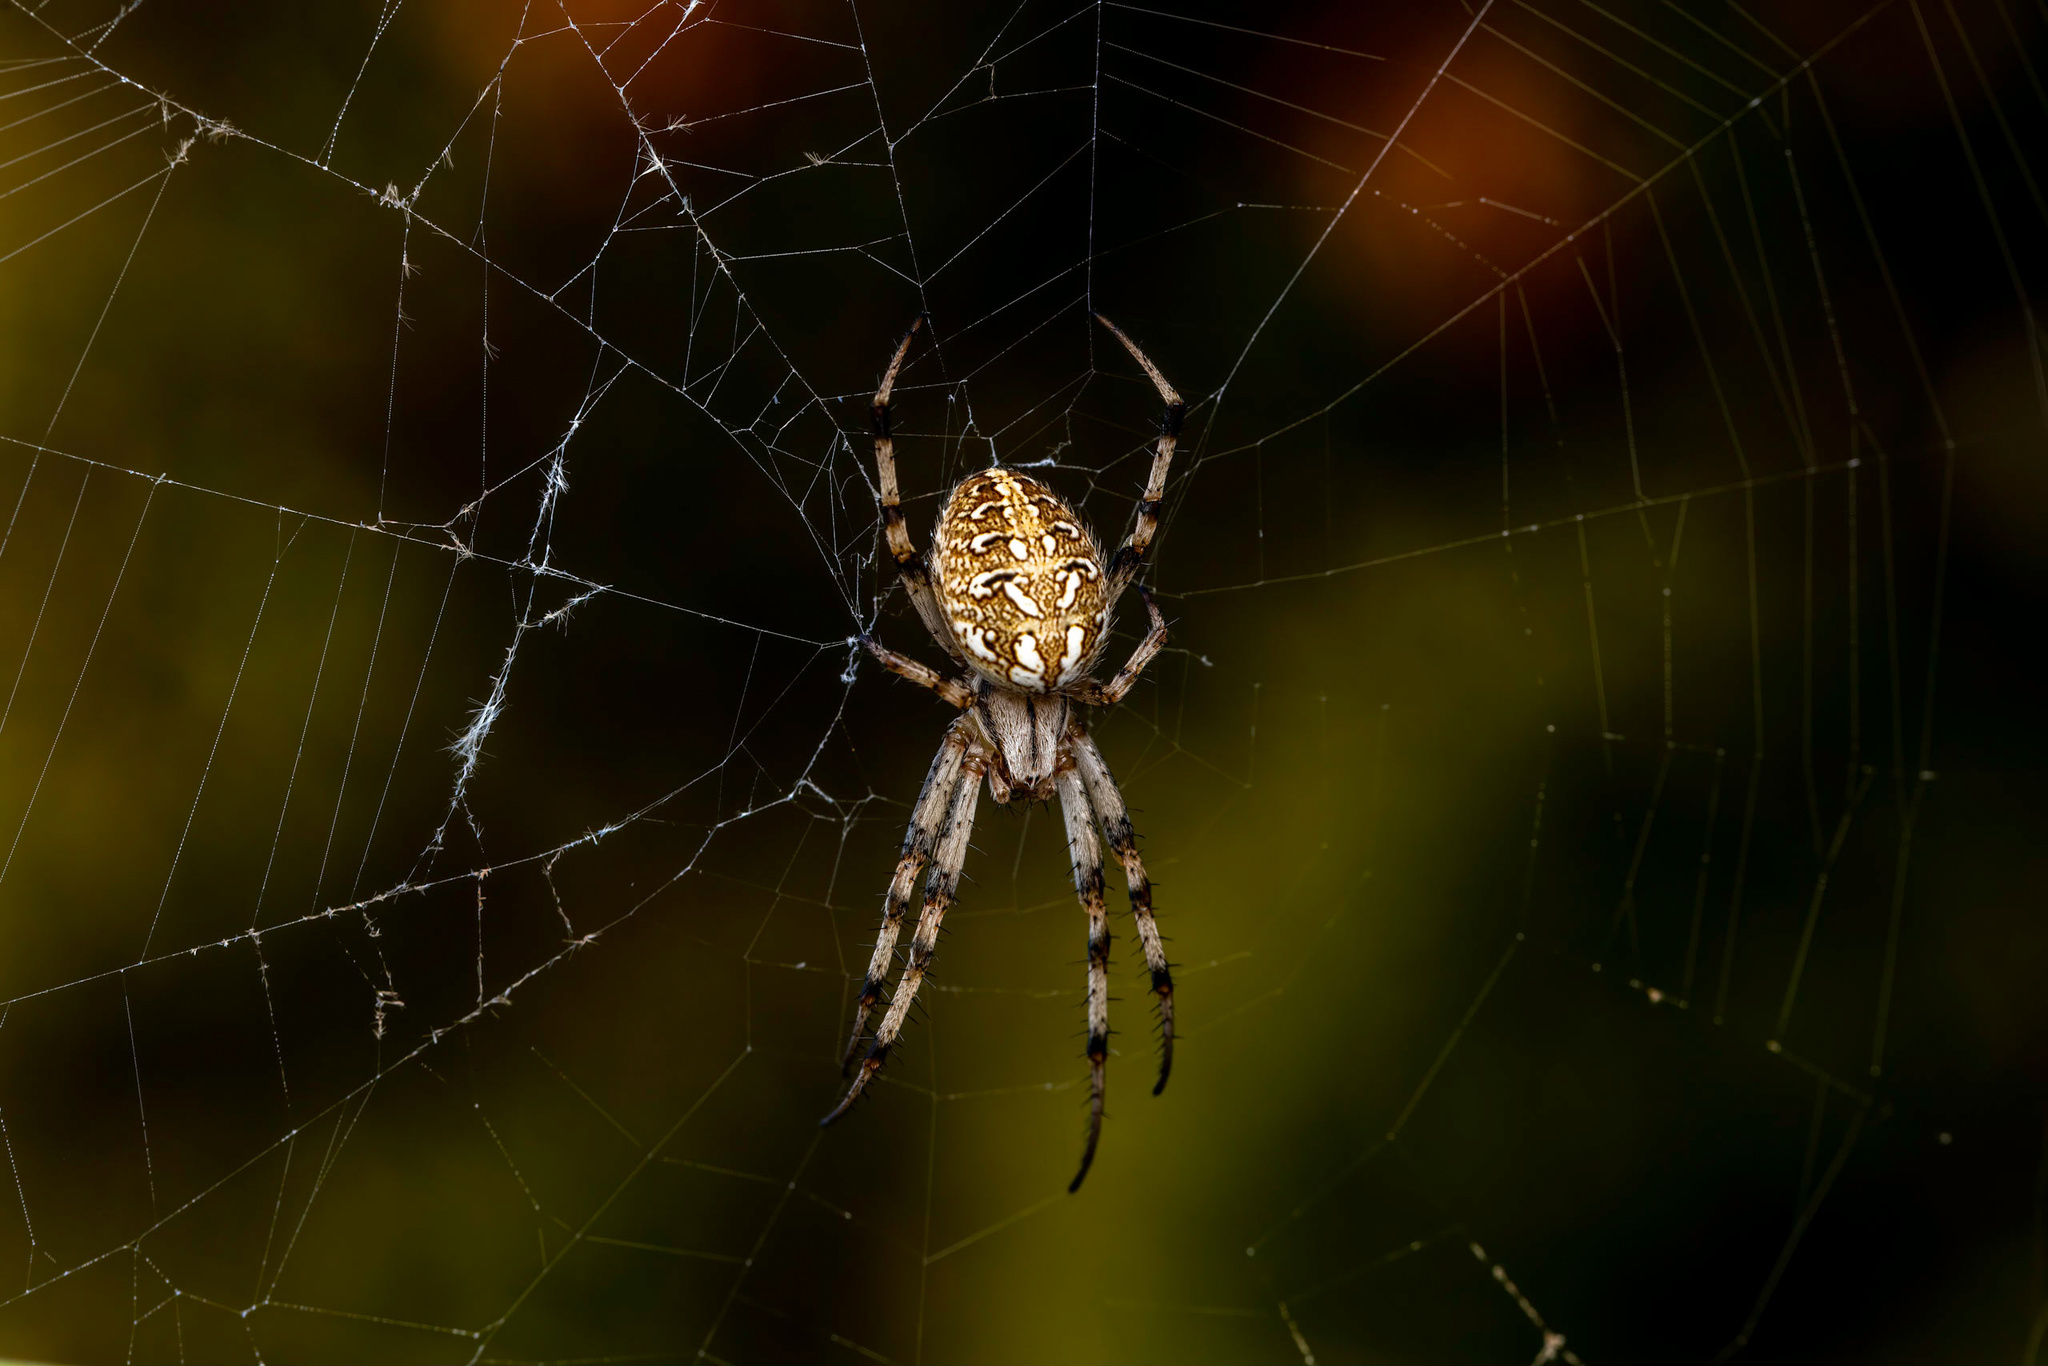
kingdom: Animalia
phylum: Arthropoda
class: Arachnida
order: Araneae
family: Araneidae
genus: Neoscona
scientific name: Neoscona byzanthina
